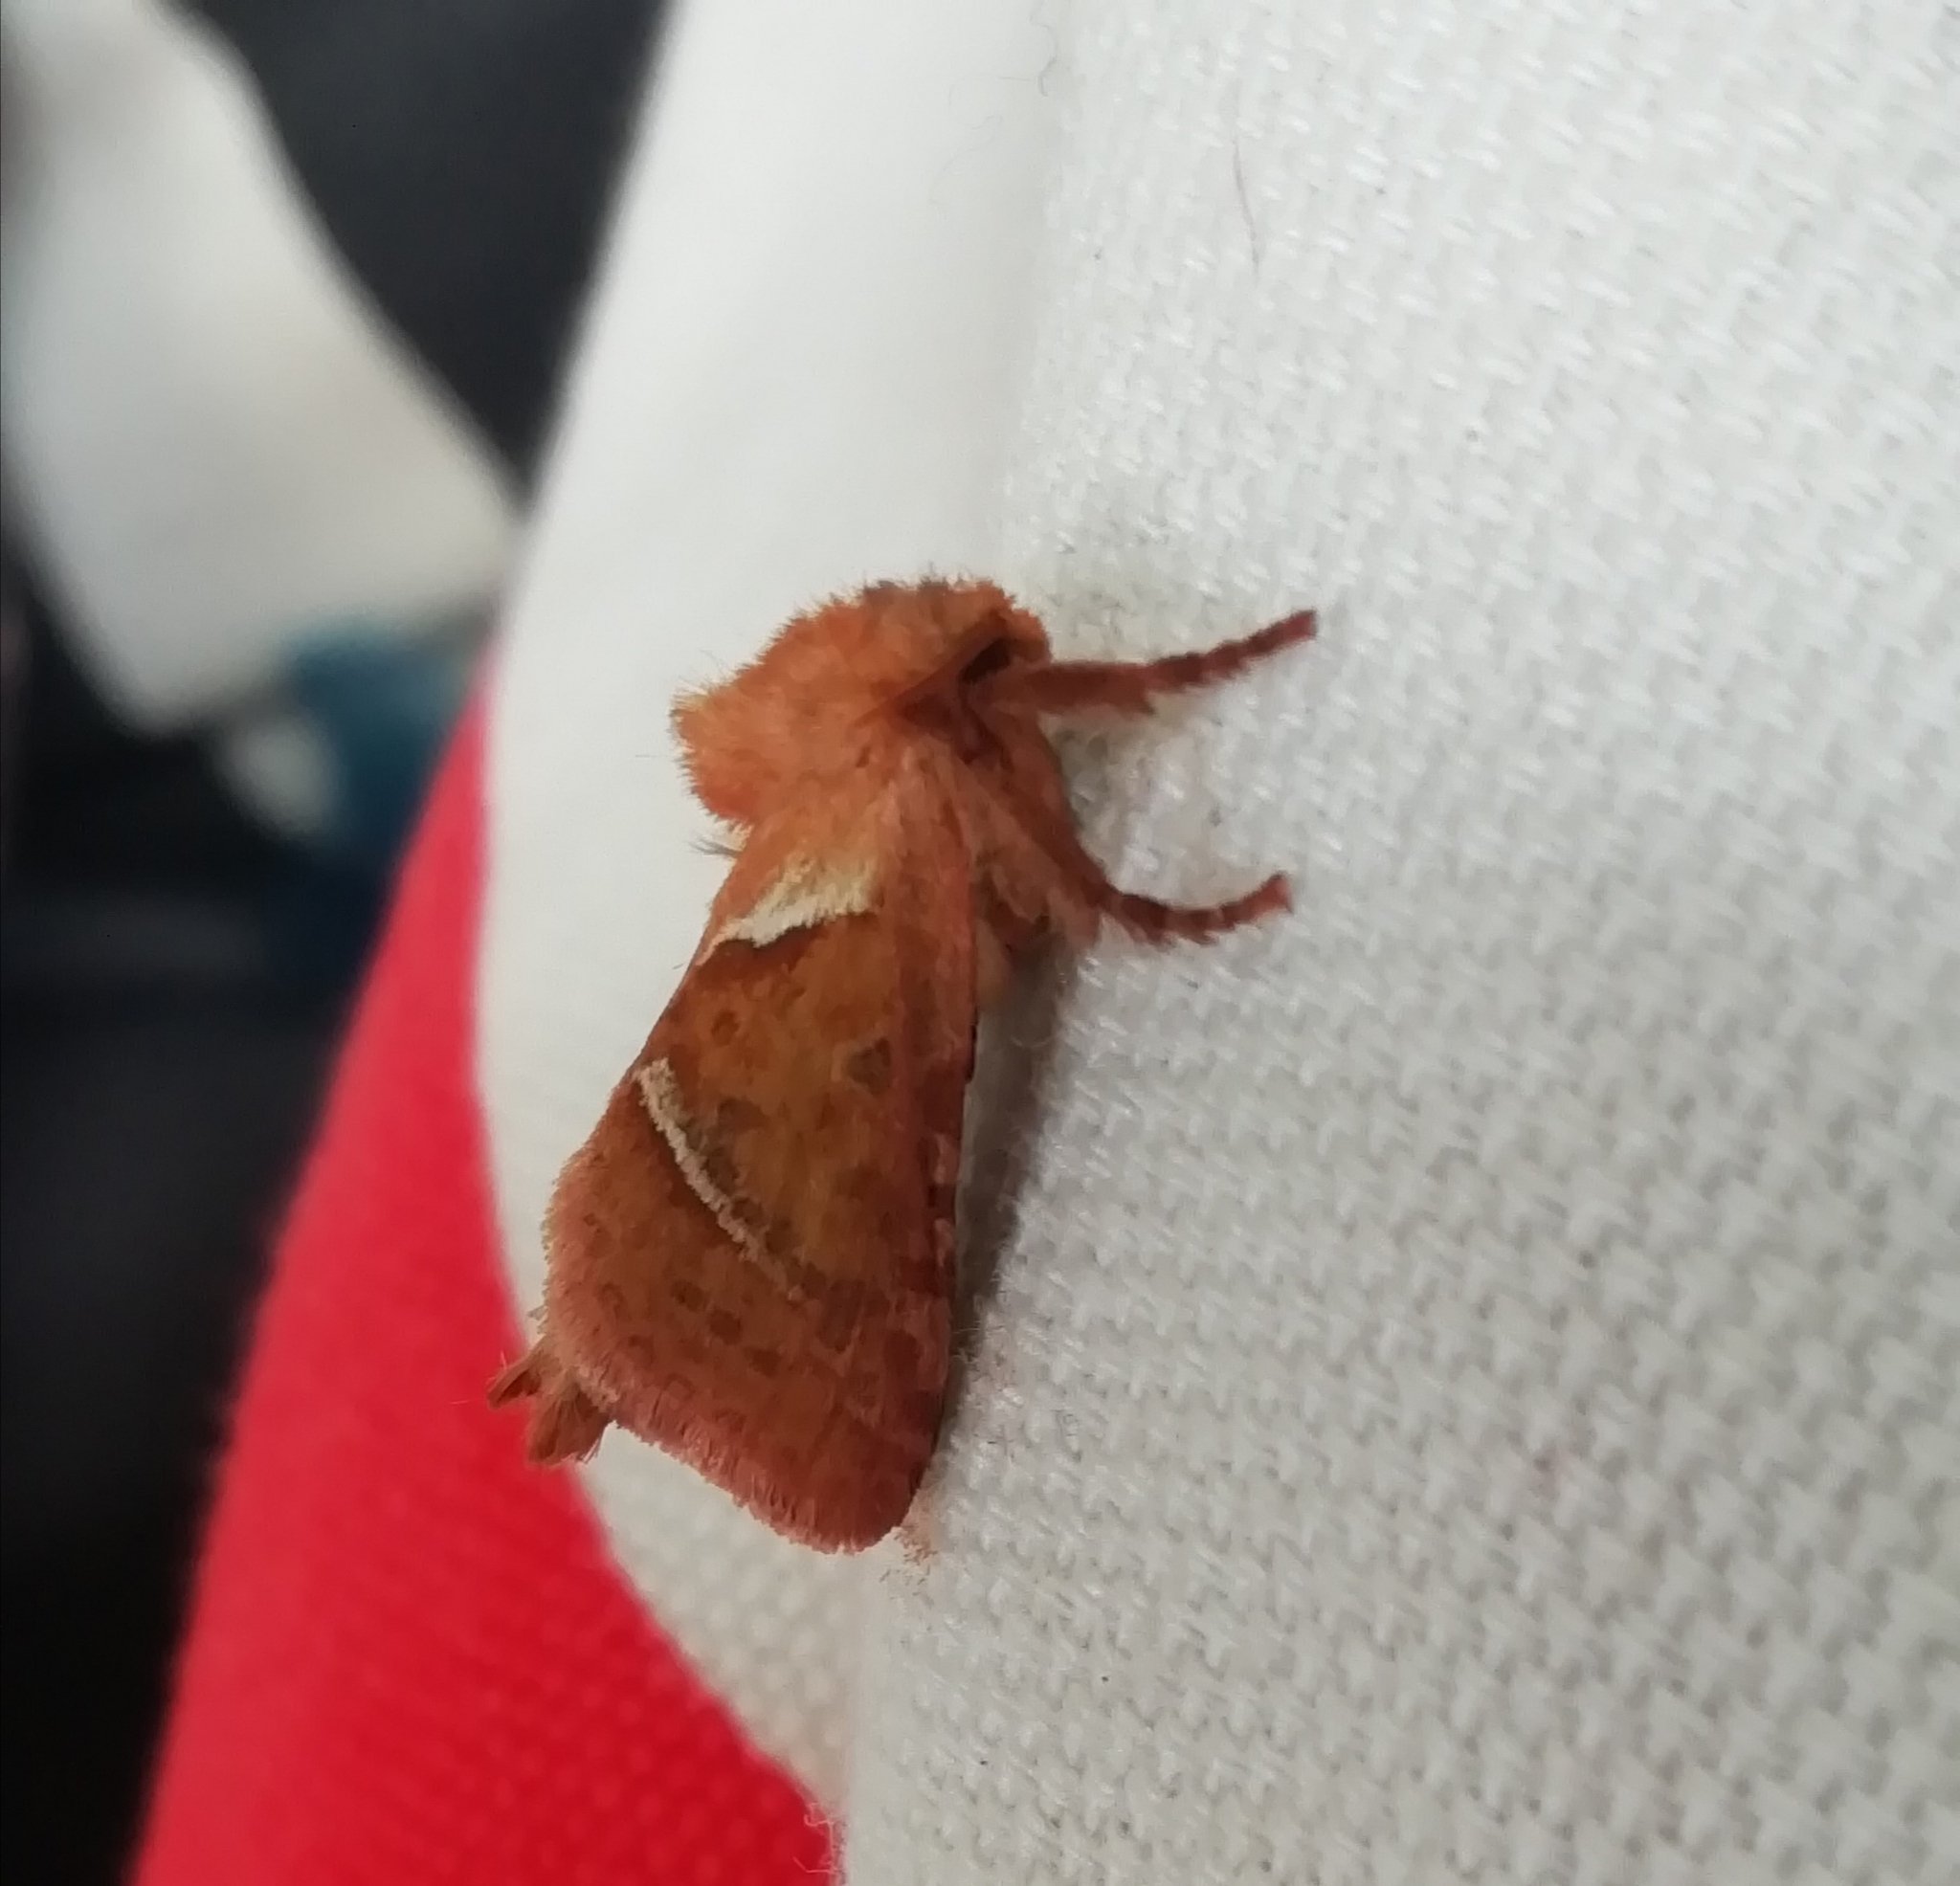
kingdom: Animalia
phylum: Arthropoda
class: Insecta
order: Lepidoptera
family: Hepialidae
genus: Triodia
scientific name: Triodia sylvina
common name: Orange swift
